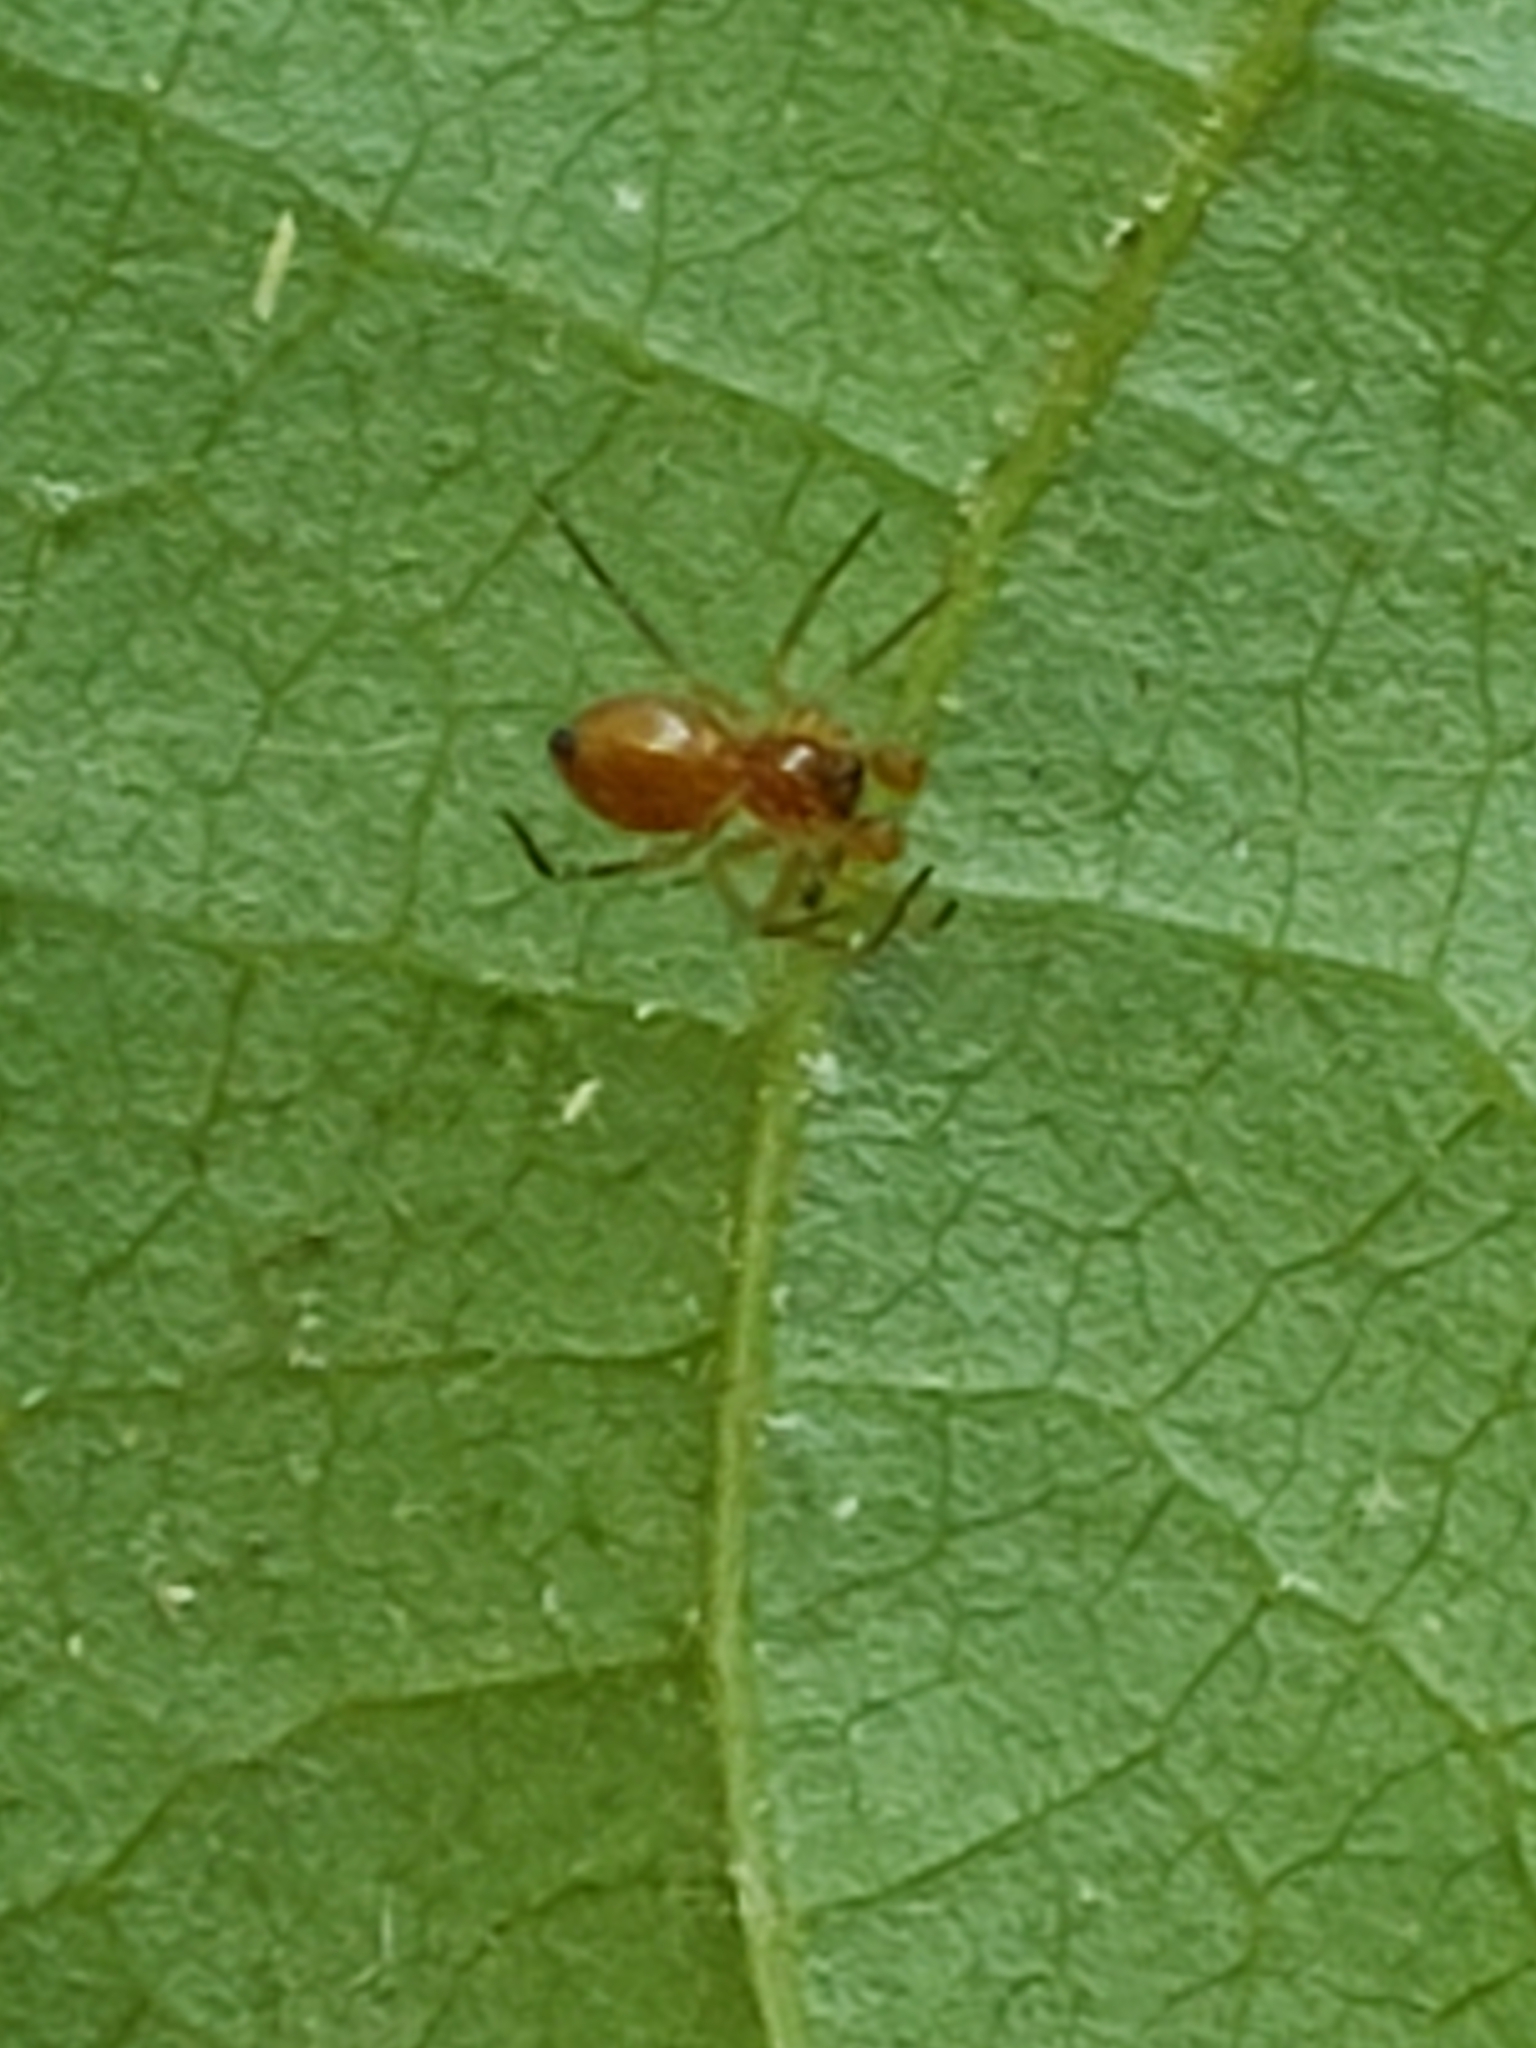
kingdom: Animalia
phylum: Arthropoda
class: Arachnida
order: Araneae
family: Linyphiidae
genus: Florinda
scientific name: Florinda coccinea
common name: Black-tailed red sheetweaver
